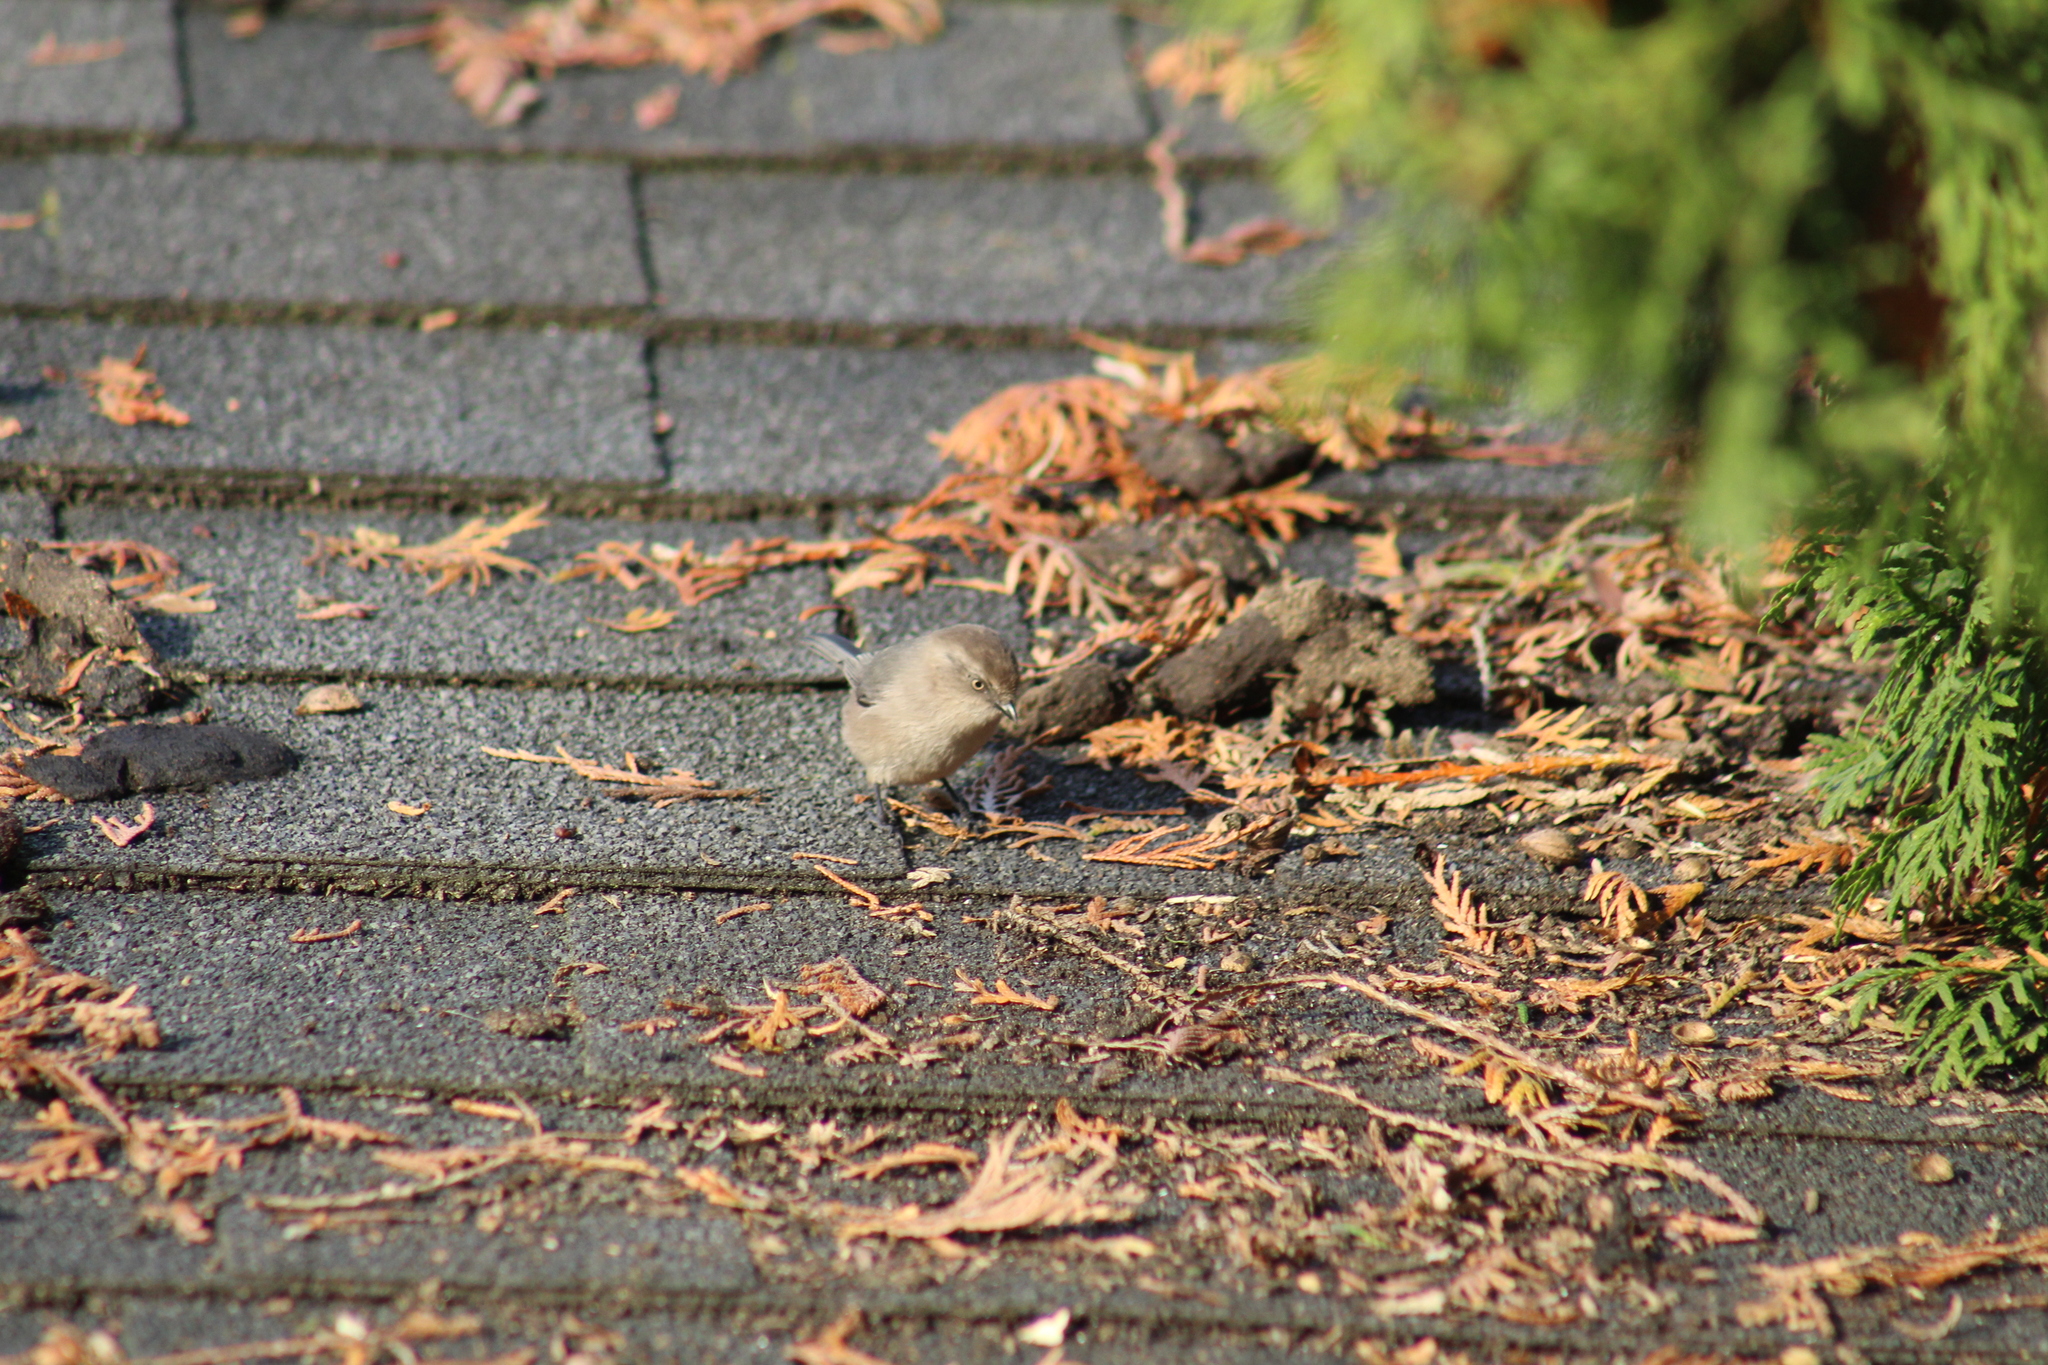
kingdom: Animalia
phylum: Chordata
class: Aves
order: Passeriformes
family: Aegithalidae
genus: Psaltriparus
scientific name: Psaltriparus minimus
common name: American bushtit
